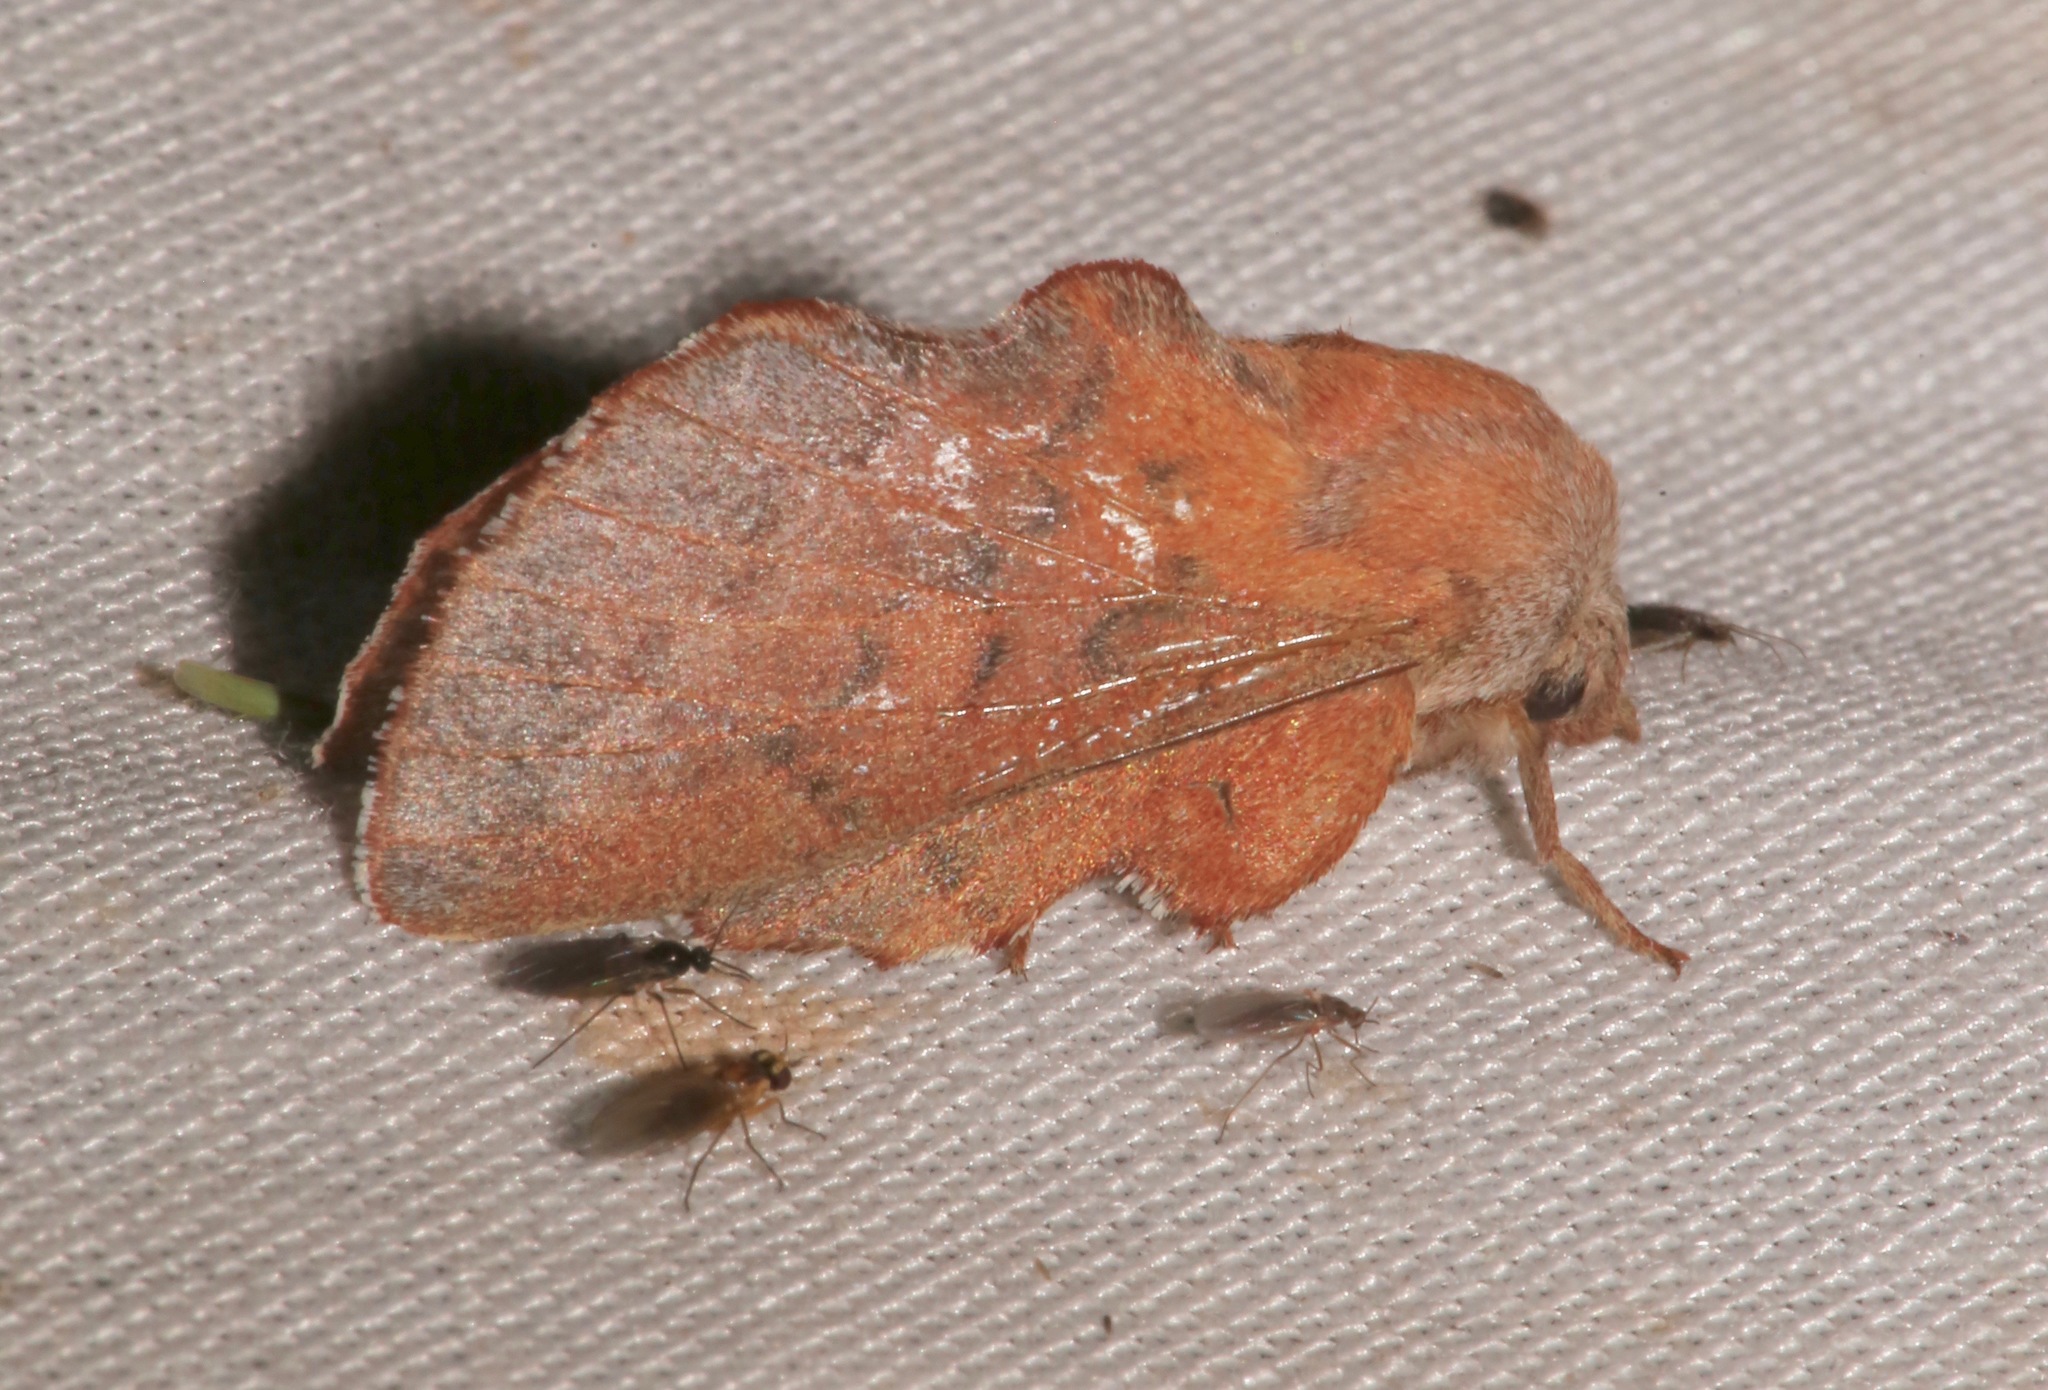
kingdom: Animalia
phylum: Arthropoda
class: Insecta
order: Lepidoptera
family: Lasiocampidae
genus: Phyllodesma
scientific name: Phyllodesma americana
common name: American lappet moth
